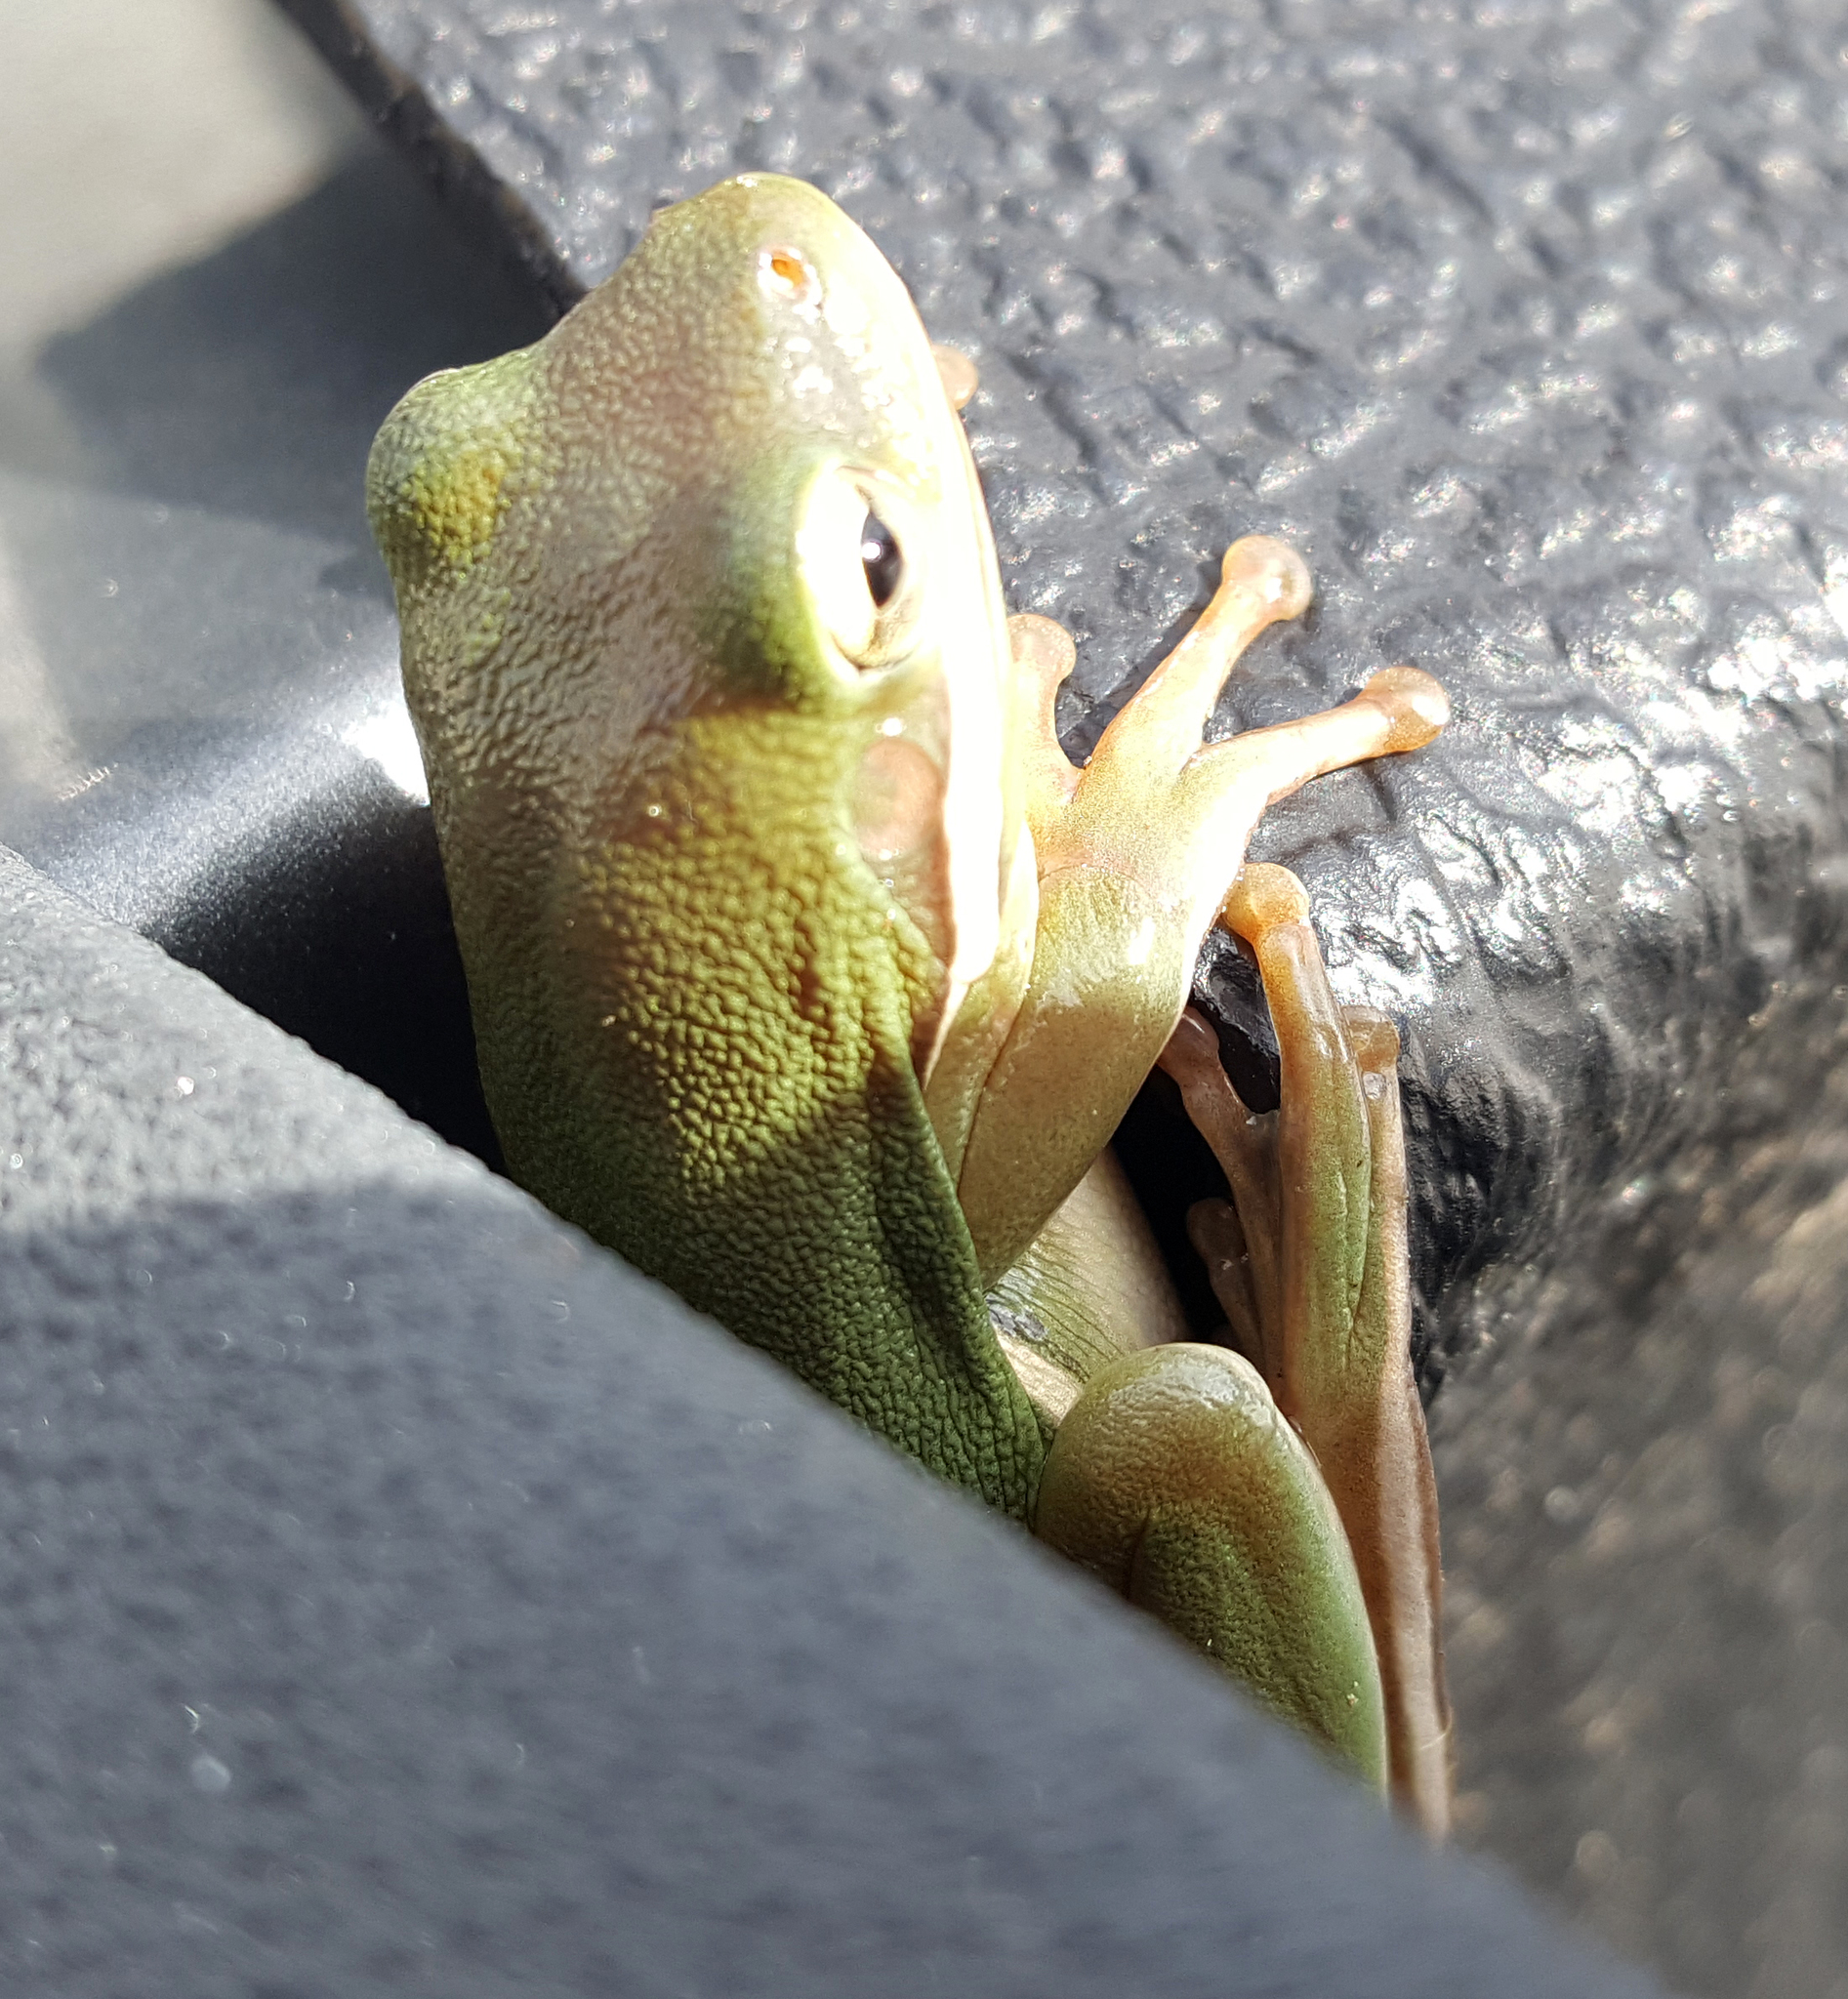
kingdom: Animalia
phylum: Chordata
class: Amphibia
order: Anura
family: Hylidae
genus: Dryophytes
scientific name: Dryophytes cinereus
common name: Green treefrog
